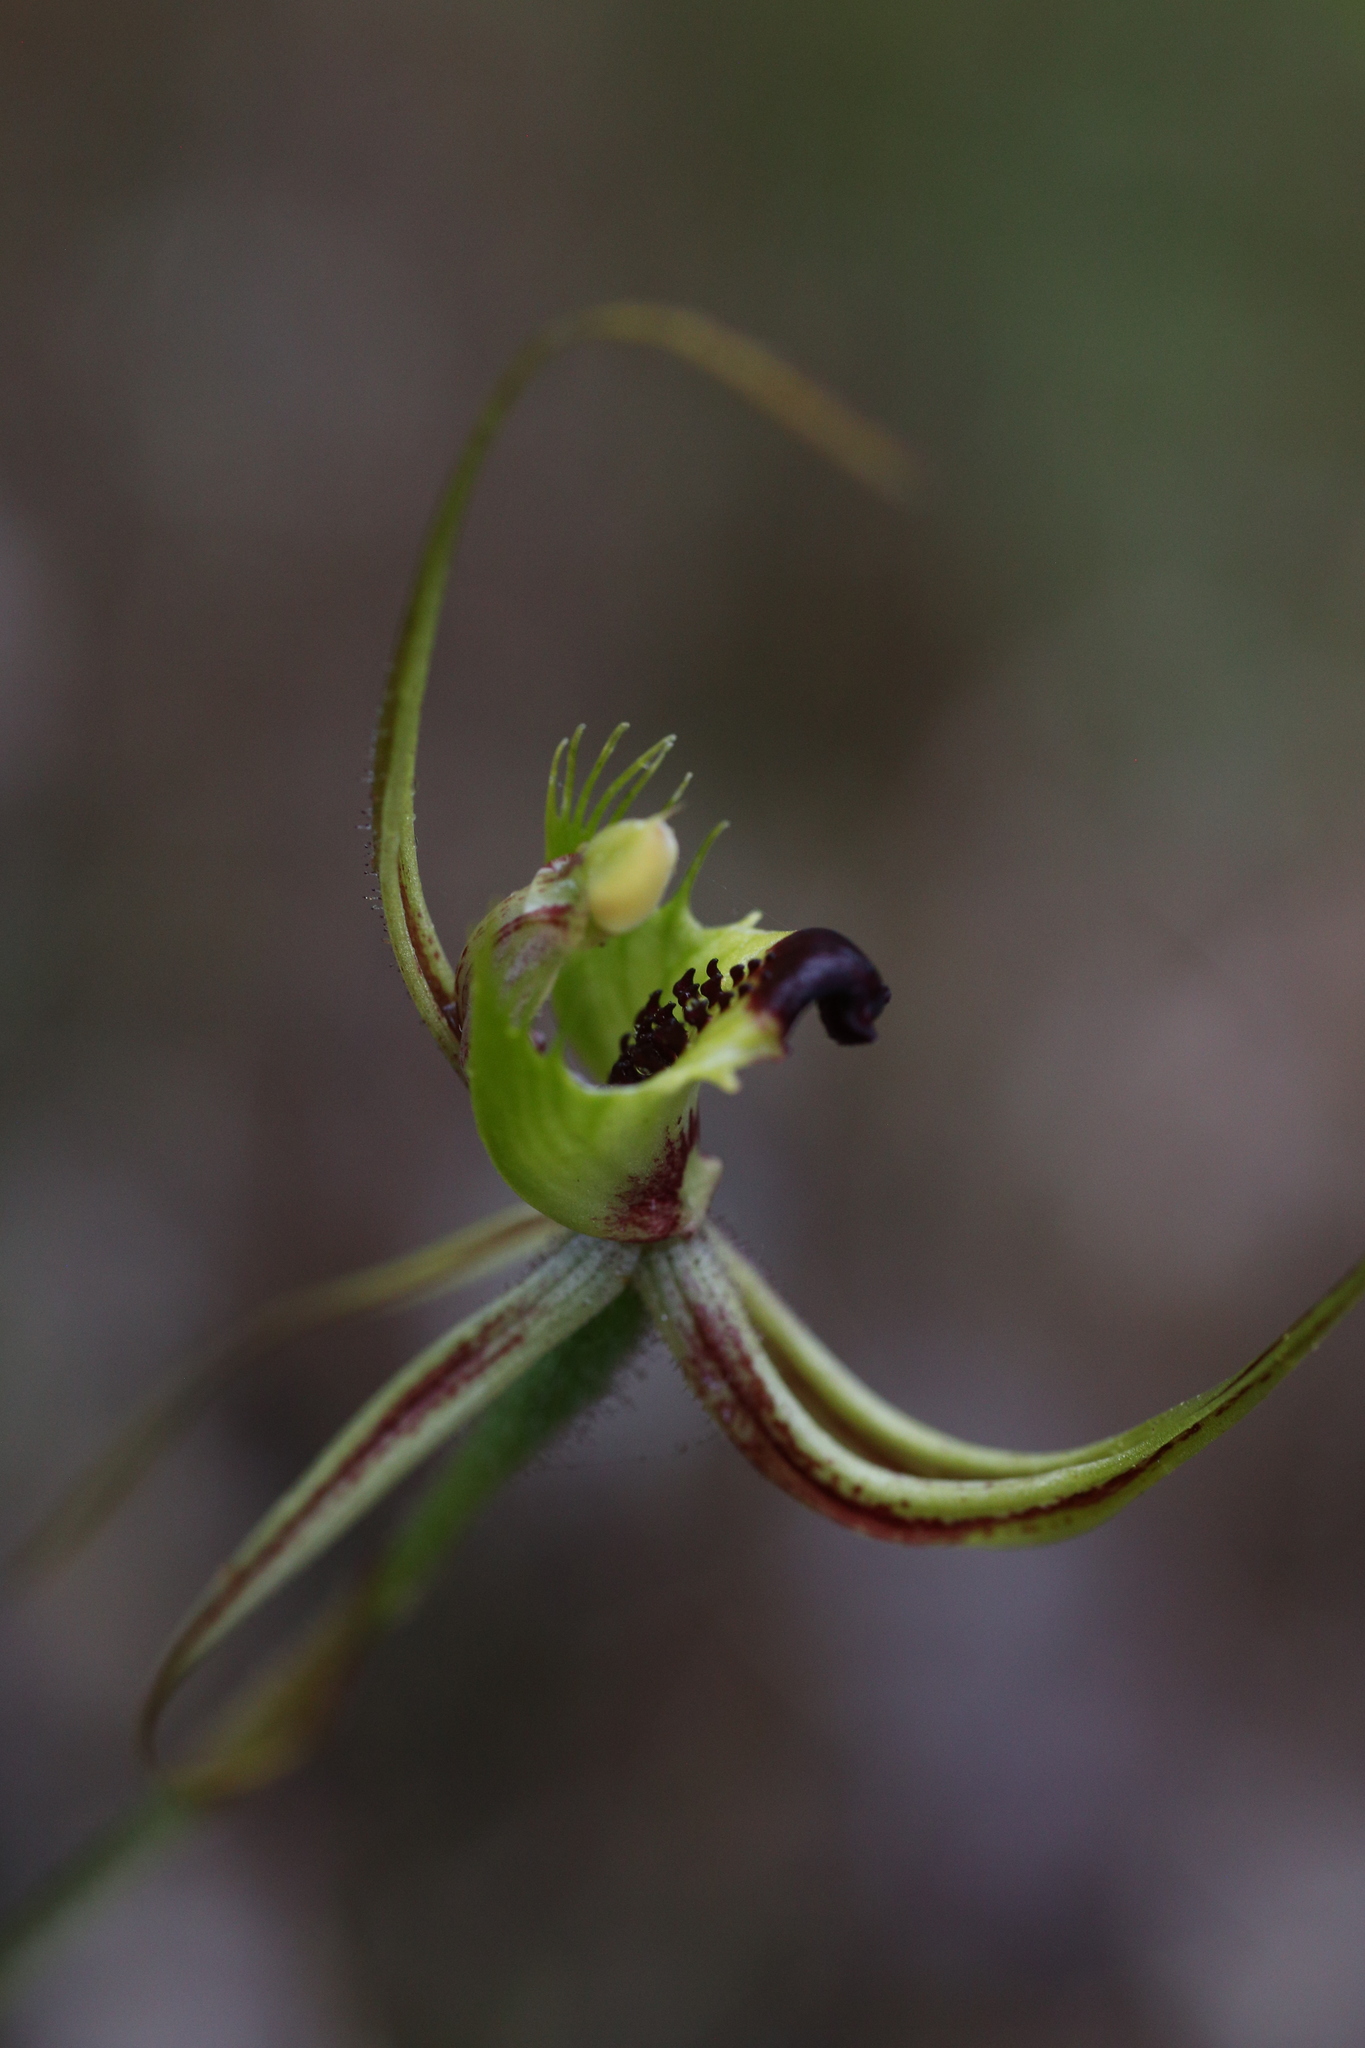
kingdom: Plantae
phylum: Tracheophyta
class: Liliopsida
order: Asparagales
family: Orchidaceae
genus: Caladenia
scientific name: Caladenia attingens
